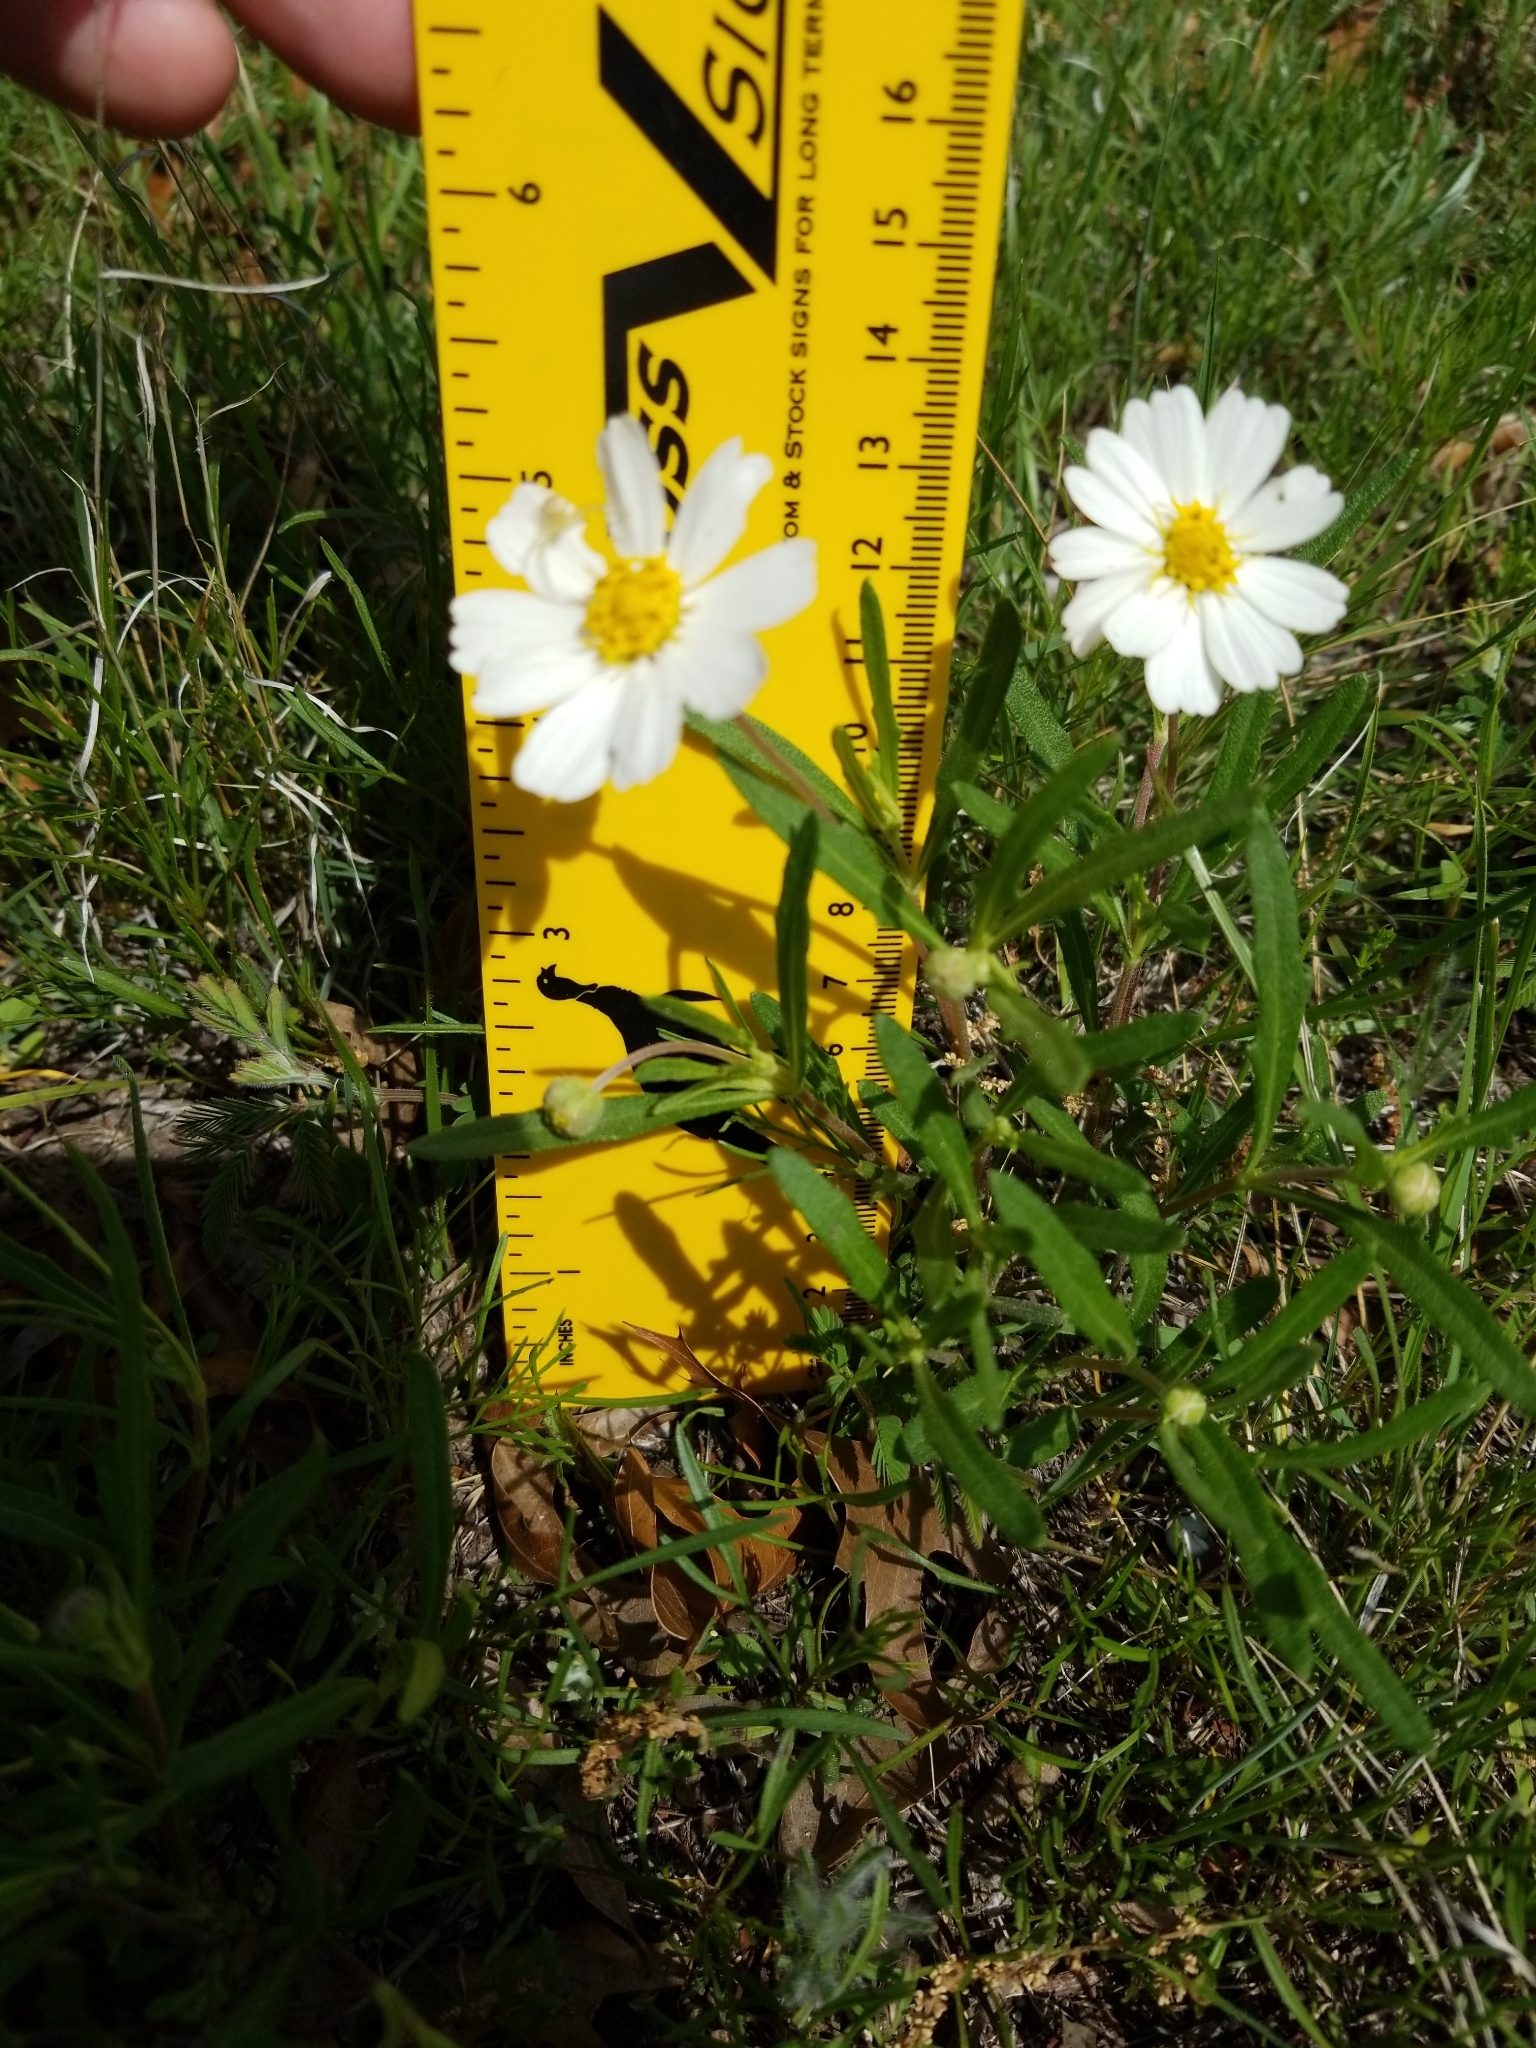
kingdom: Plantae
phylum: Tracheophyta
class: Magnoliopsida
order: Asterales
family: Asteraceae
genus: Melampodium
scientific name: Melampodium leucanthum
